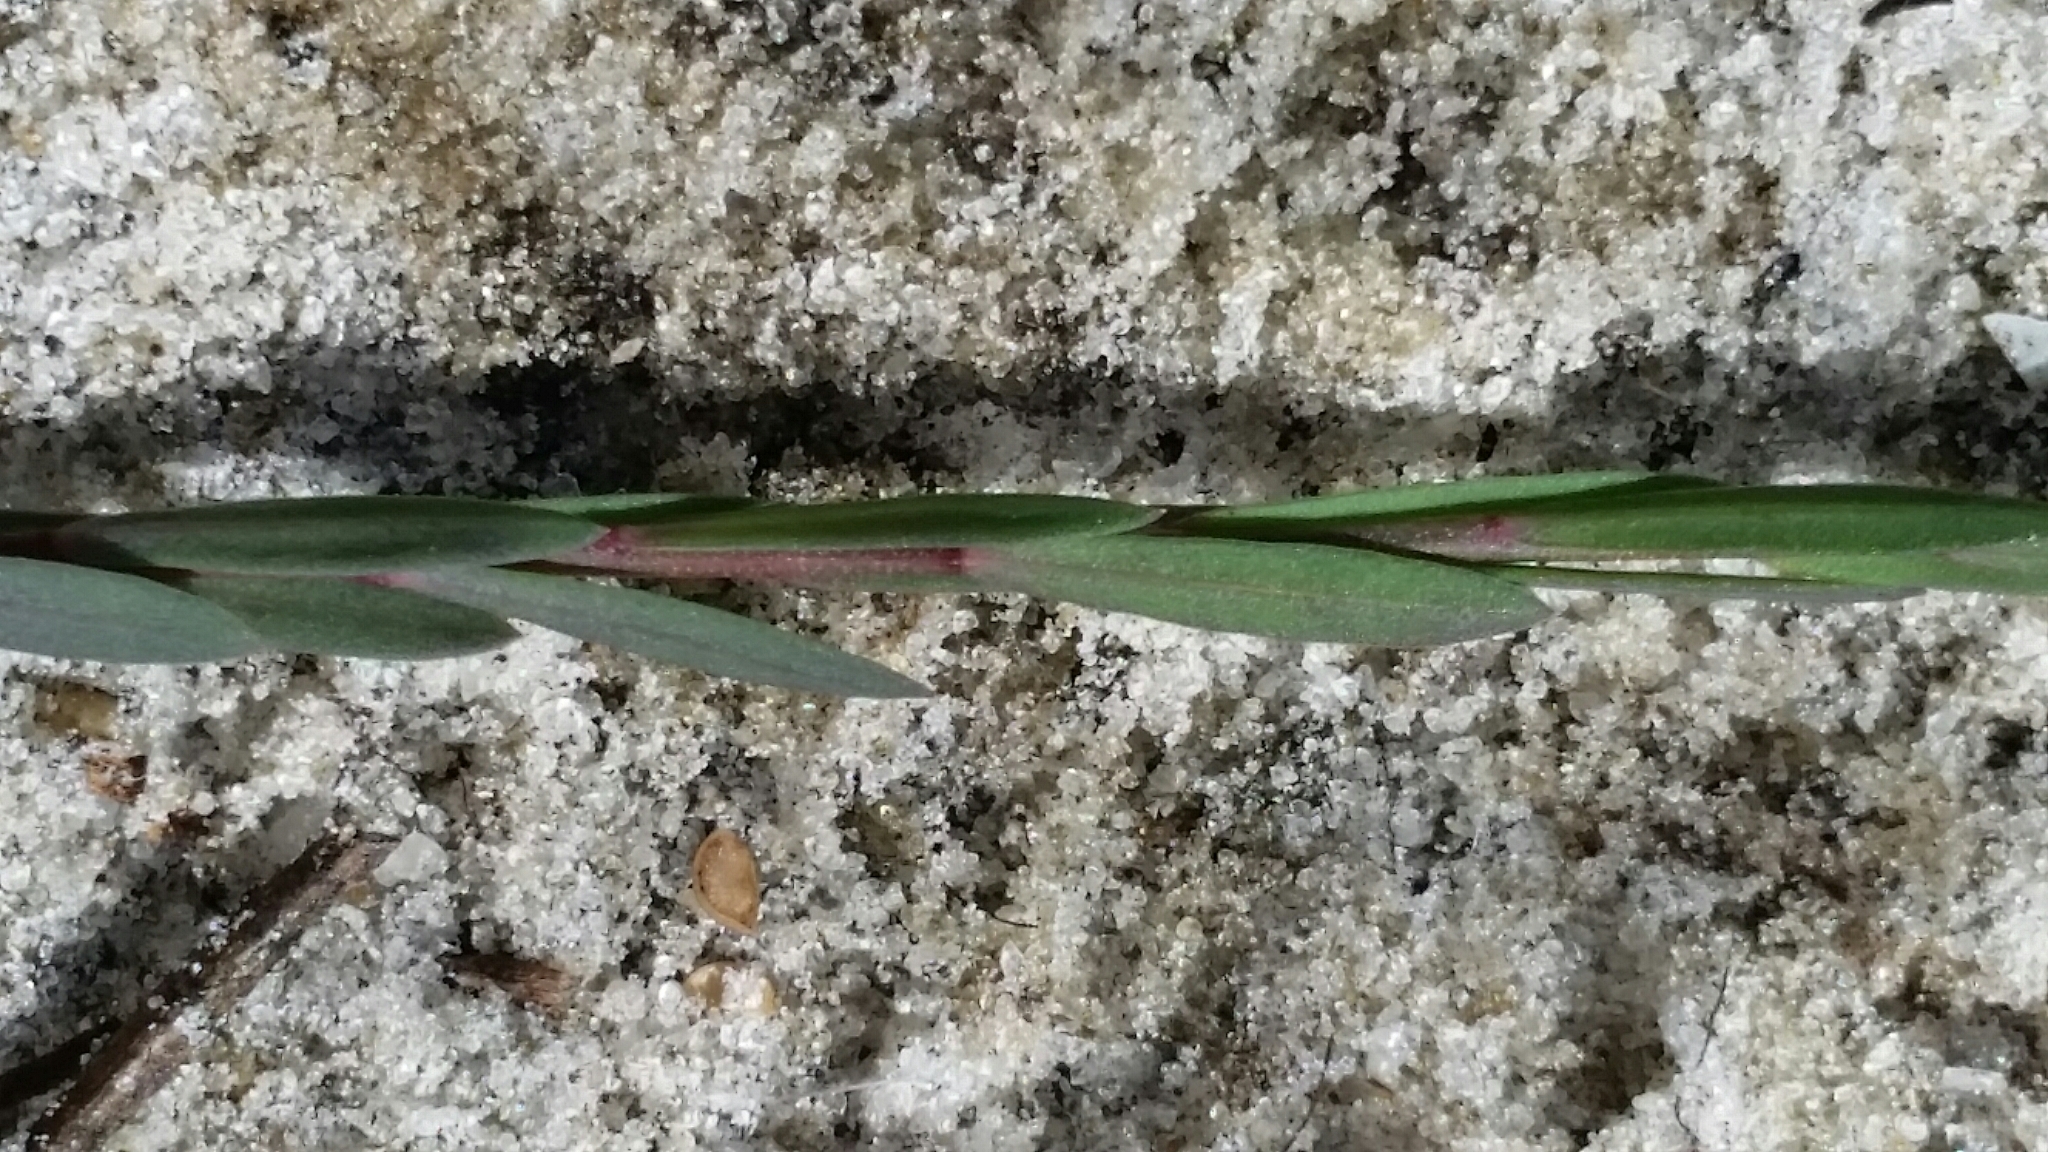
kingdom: Plantae
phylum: Tracheophyta
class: Magnoliopsida
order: Malpighiales
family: Linaceae
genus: Linum
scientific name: Linum medium
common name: Stiff yellow flax
